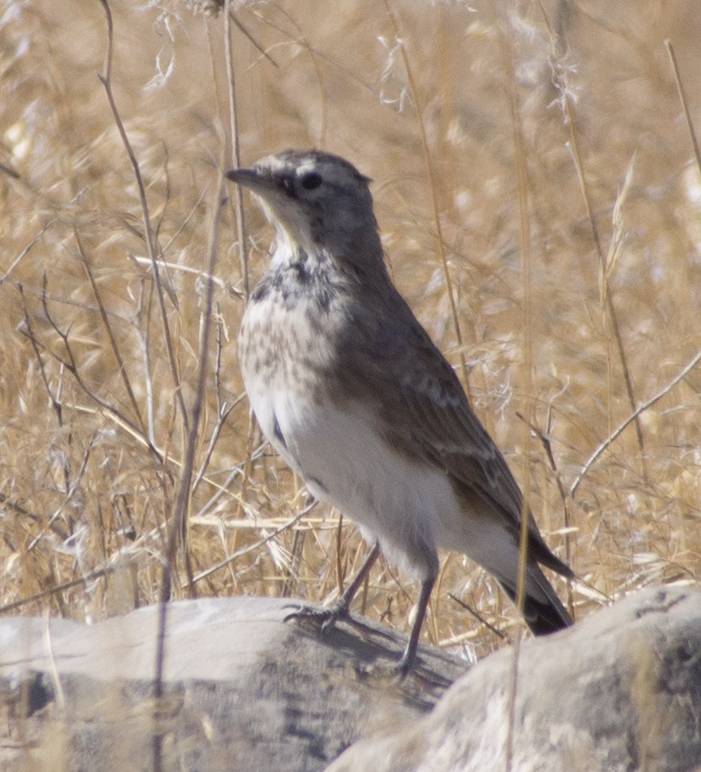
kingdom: Animalia
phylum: Chordata
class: Aves
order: Passeriformes
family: Alaudidae
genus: Eremophila
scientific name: Eremophila alpestris
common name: Horned lark
